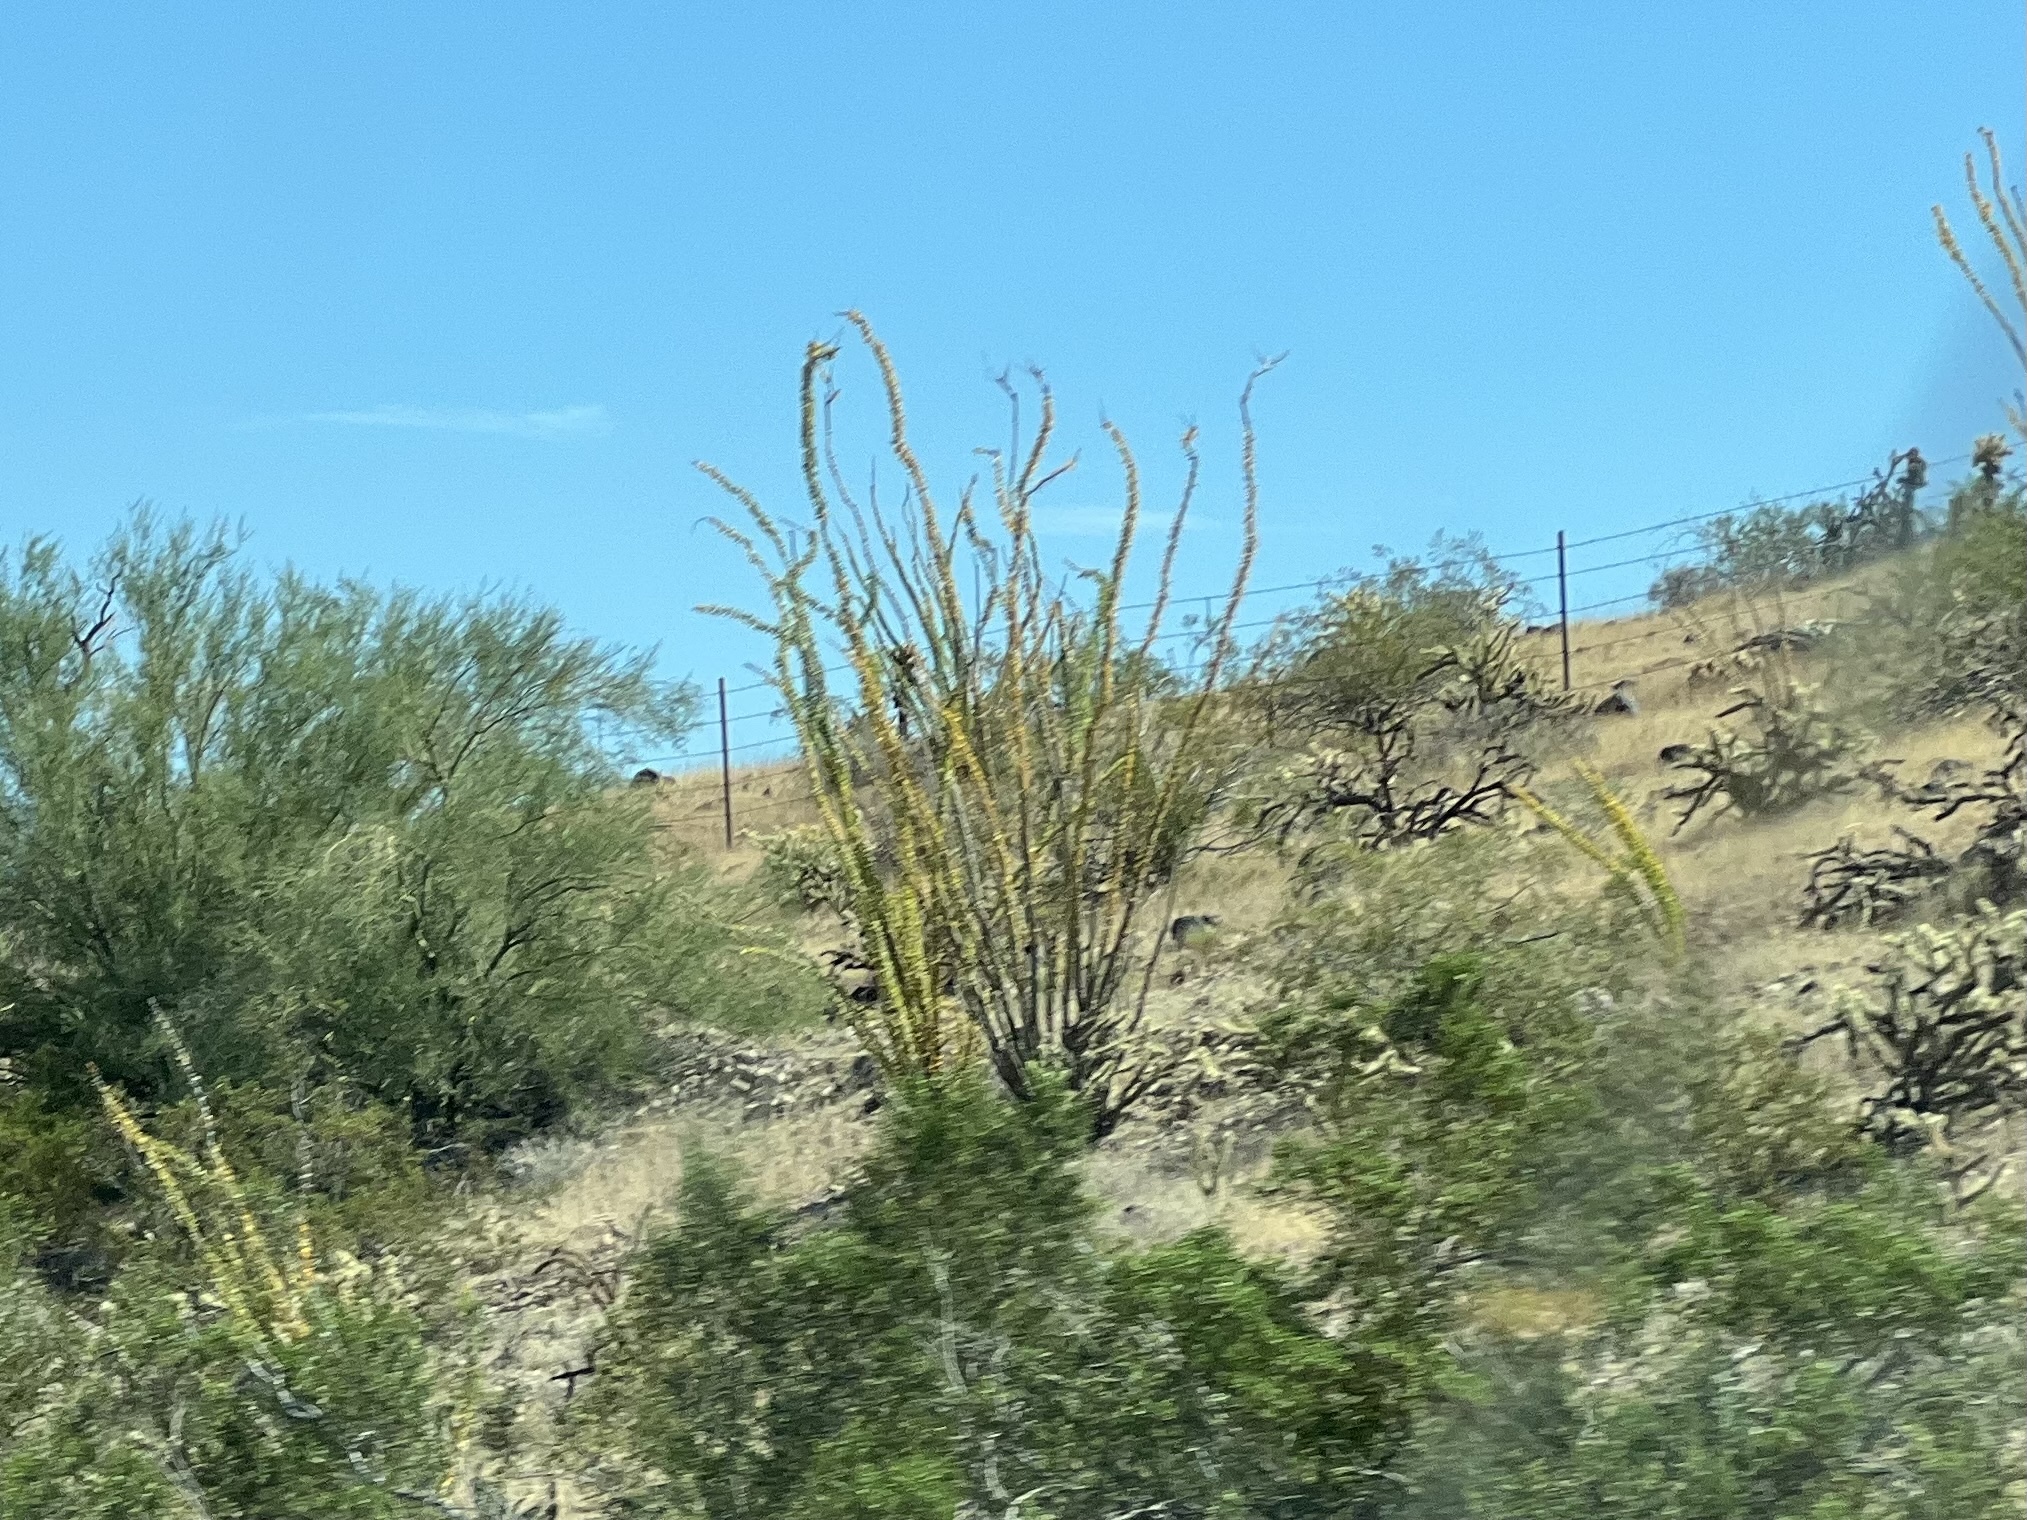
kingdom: Plantae
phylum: Tracheophyta
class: Magnoliopsida
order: Ericales
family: Fouquieriaceae
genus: Fouquieria
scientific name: Fouquieria splendens
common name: Vine-cactus
